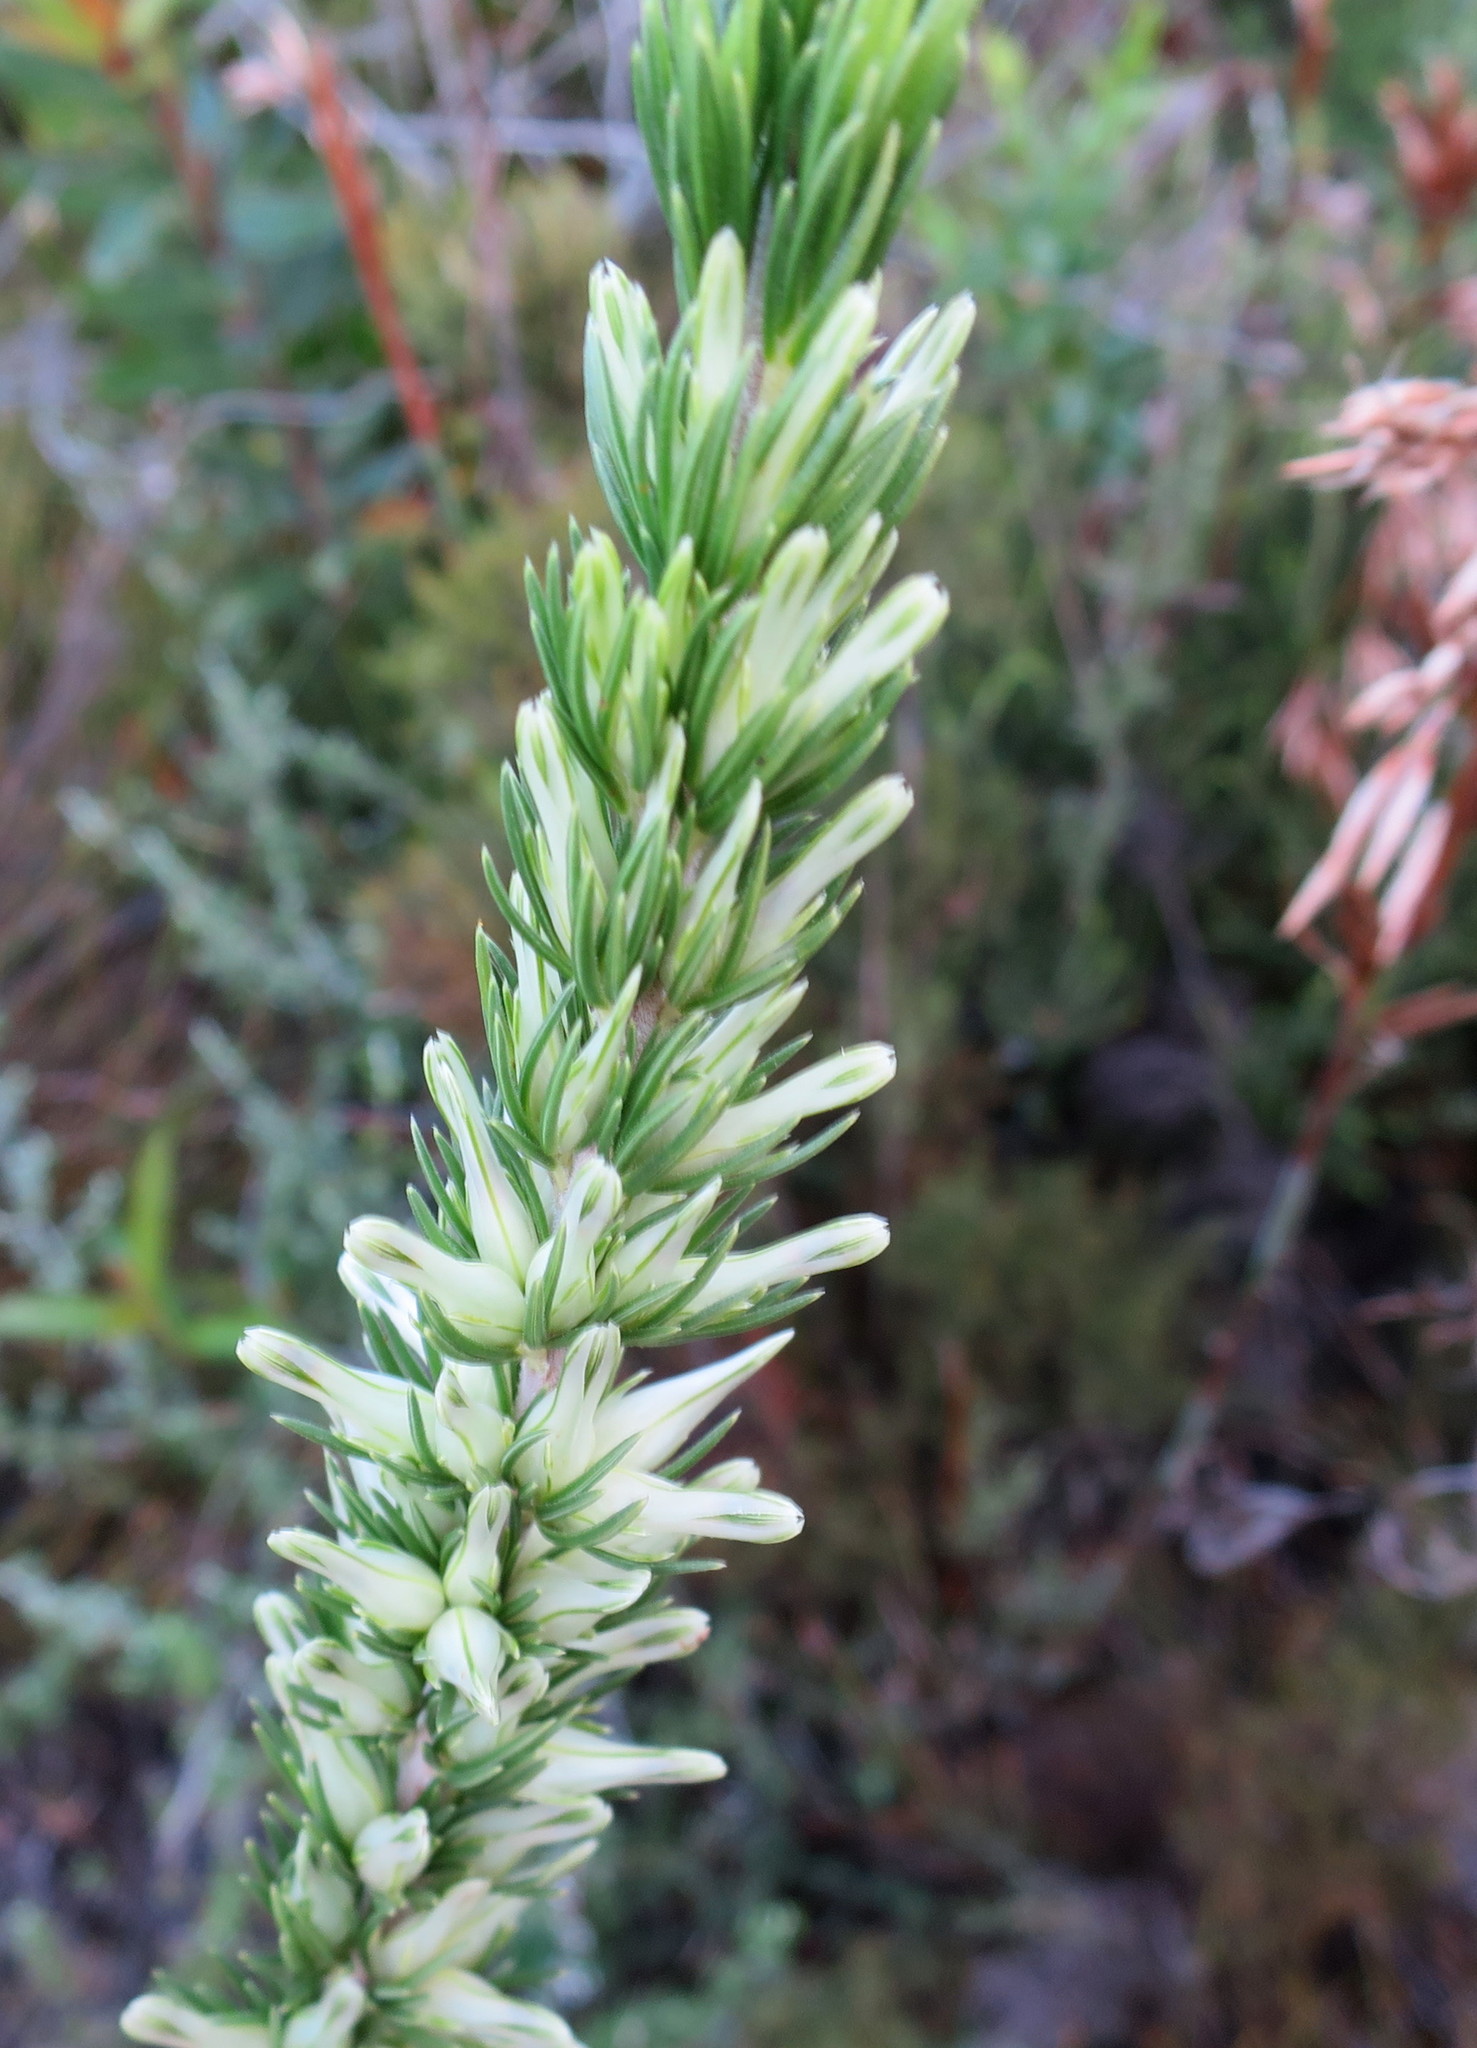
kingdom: Plantae
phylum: Tracheophyta
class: Magnoliopsida
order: Ericales
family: Ericaceae
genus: Erica
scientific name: Erica nabea
